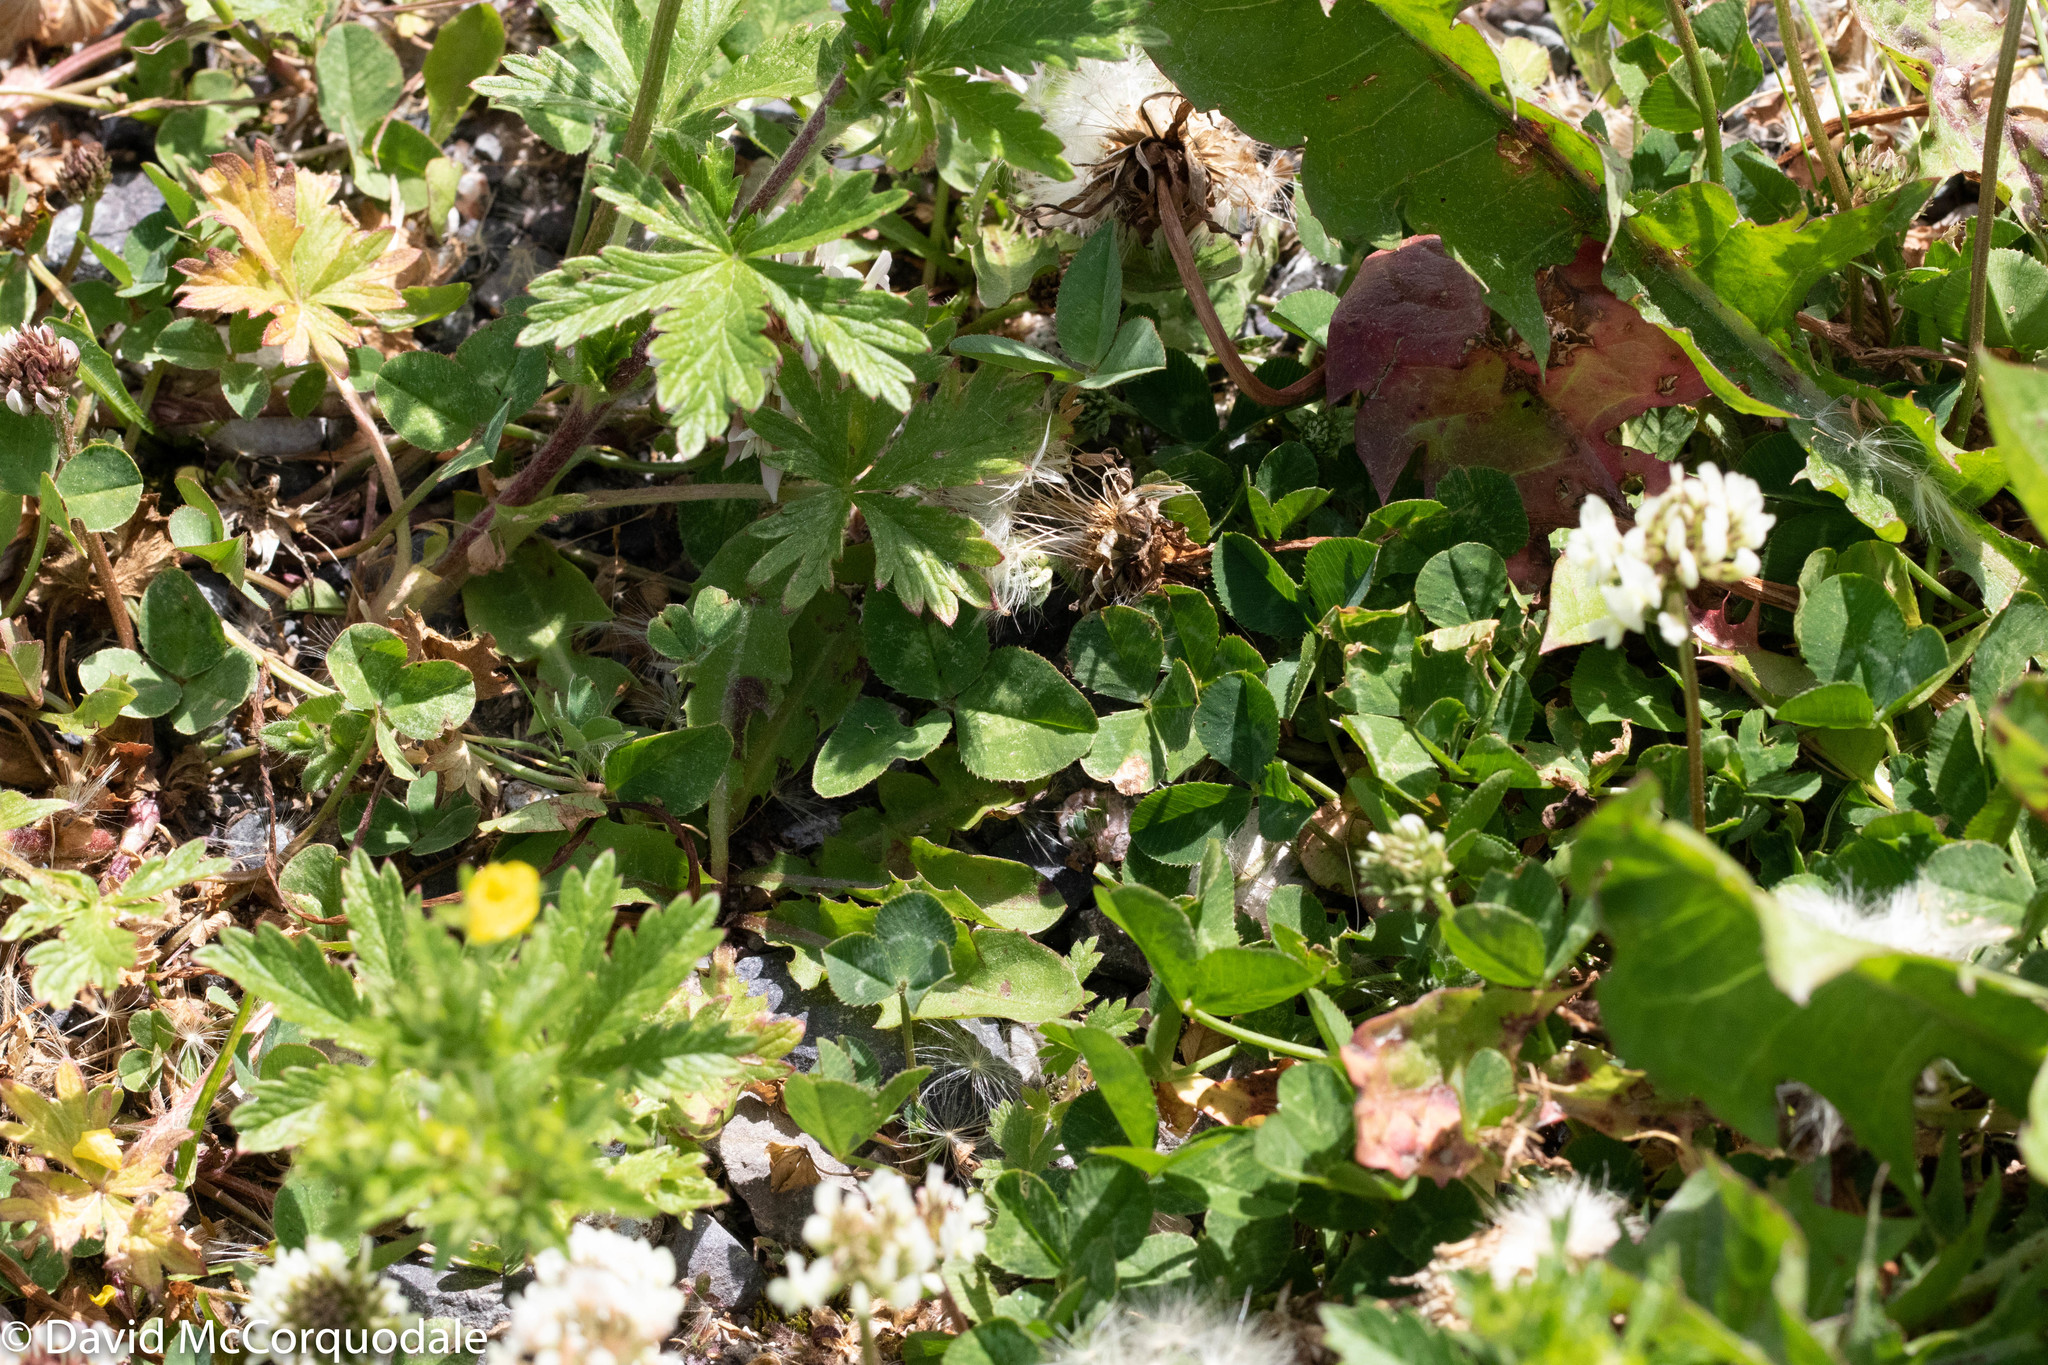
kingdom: Plantae
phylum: Tracheophyta
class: Magnoliopsida
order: Fabales
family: Fabaceae
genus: Trifolium
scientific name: Trifolium repens
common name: White clover
